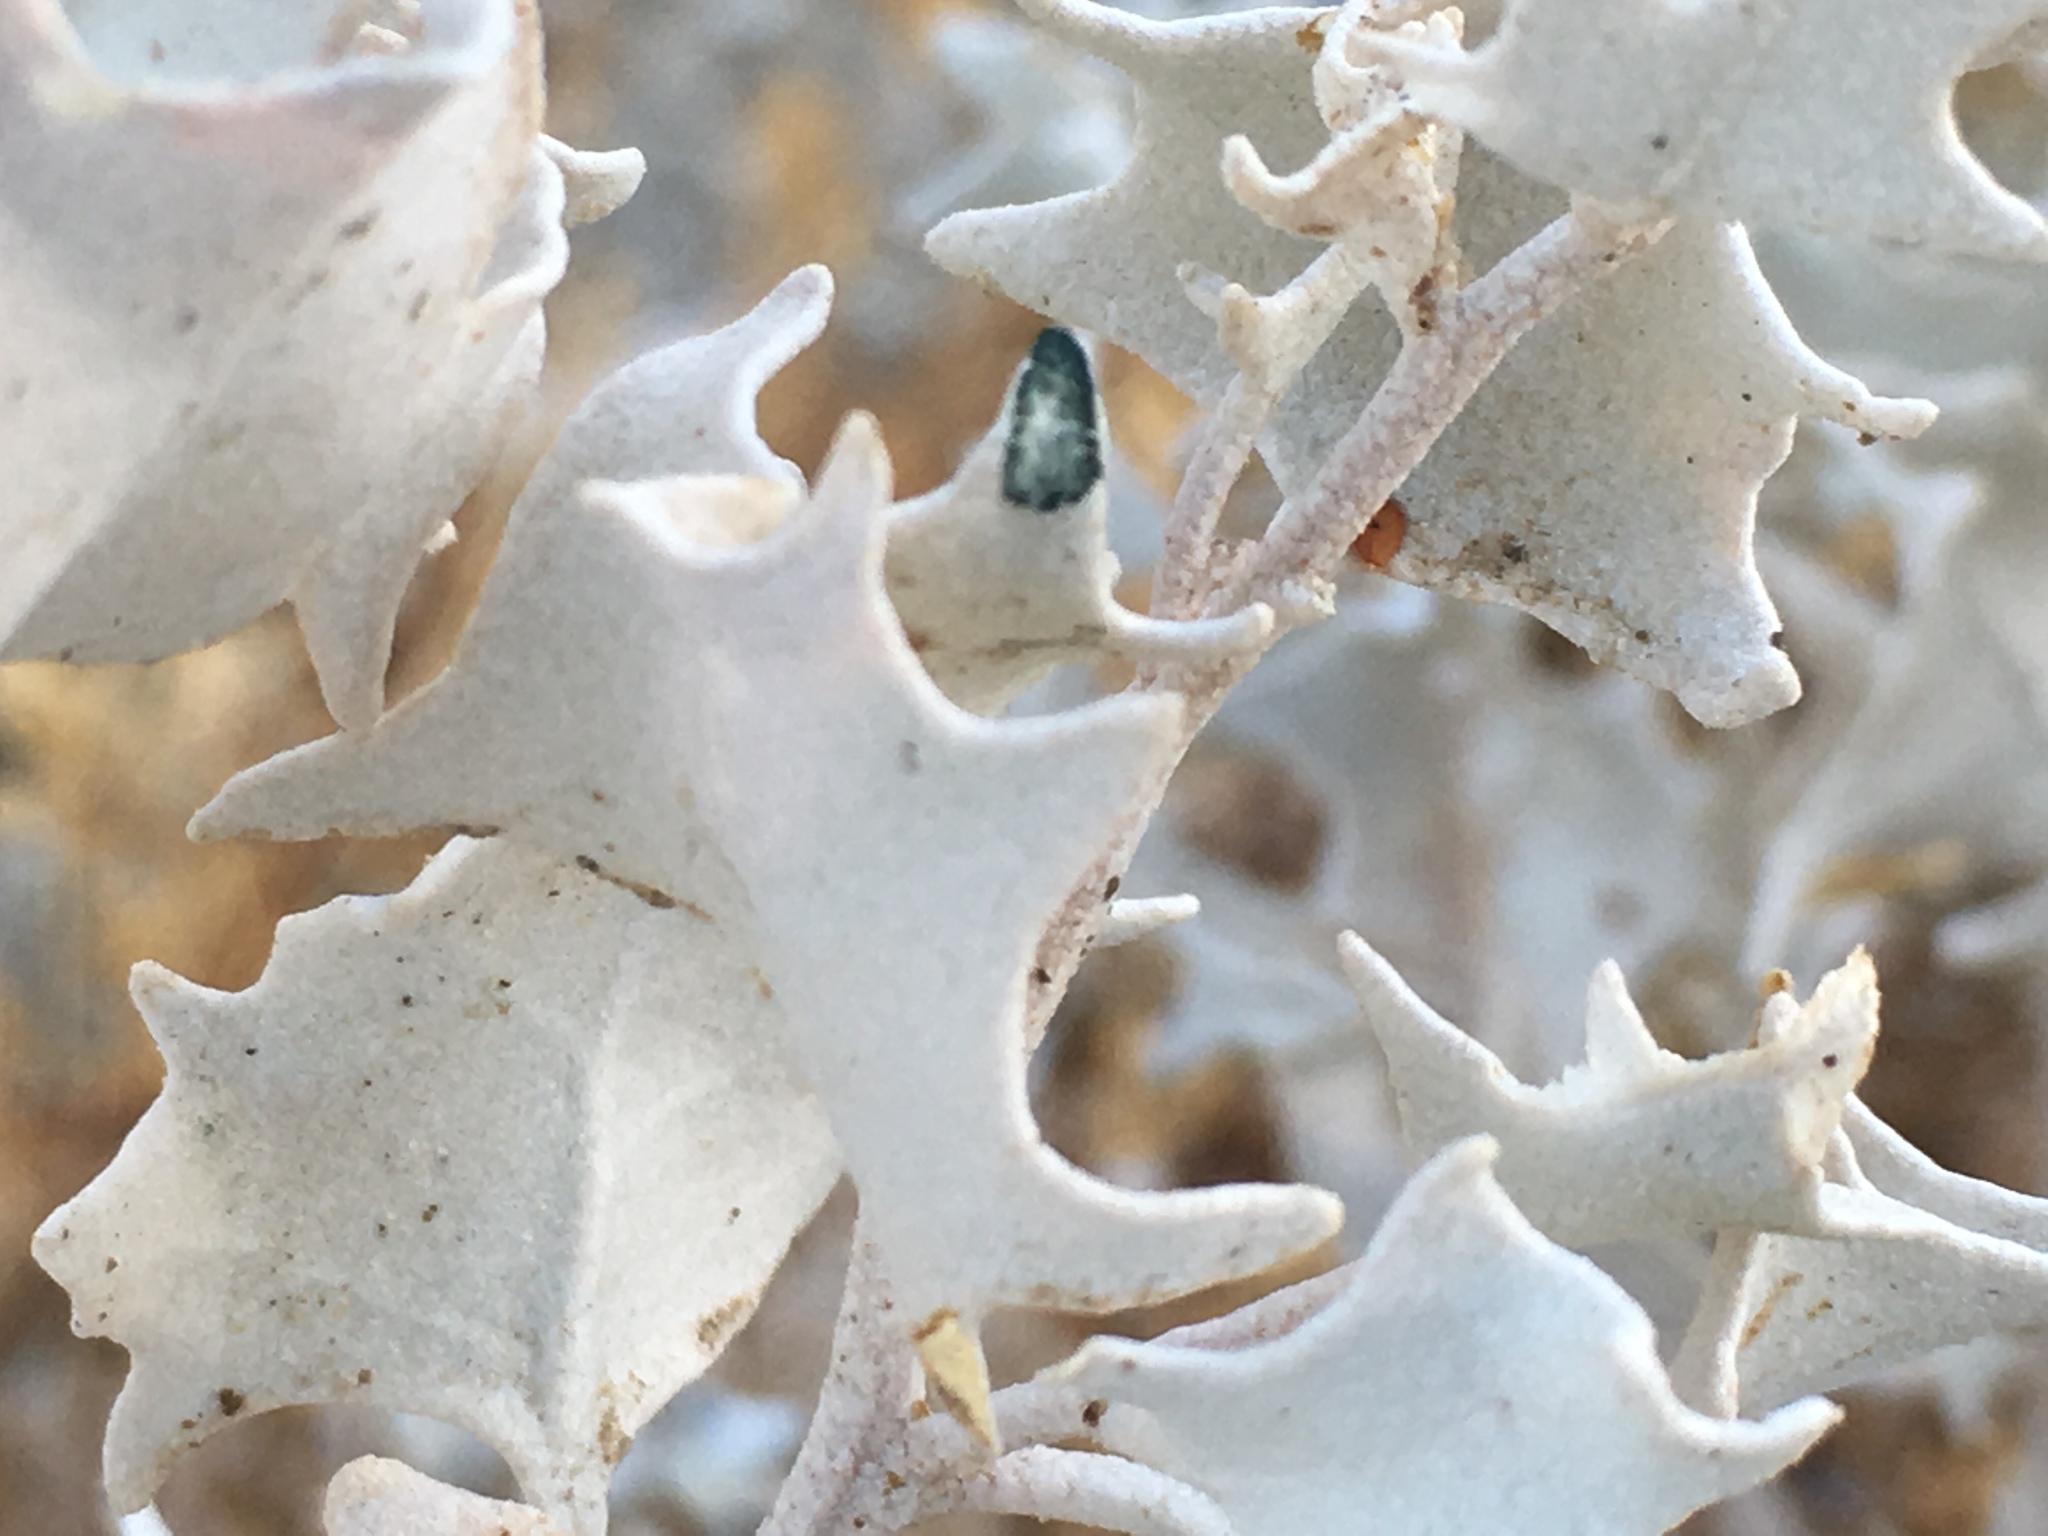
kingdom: Plantae
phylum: Tracheophyta
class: Magnoliopsida
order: Caryophyllales
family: Amaranthaceae
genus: Atriplex
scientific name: Atriplex hymenelytra
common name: Desert-holly
